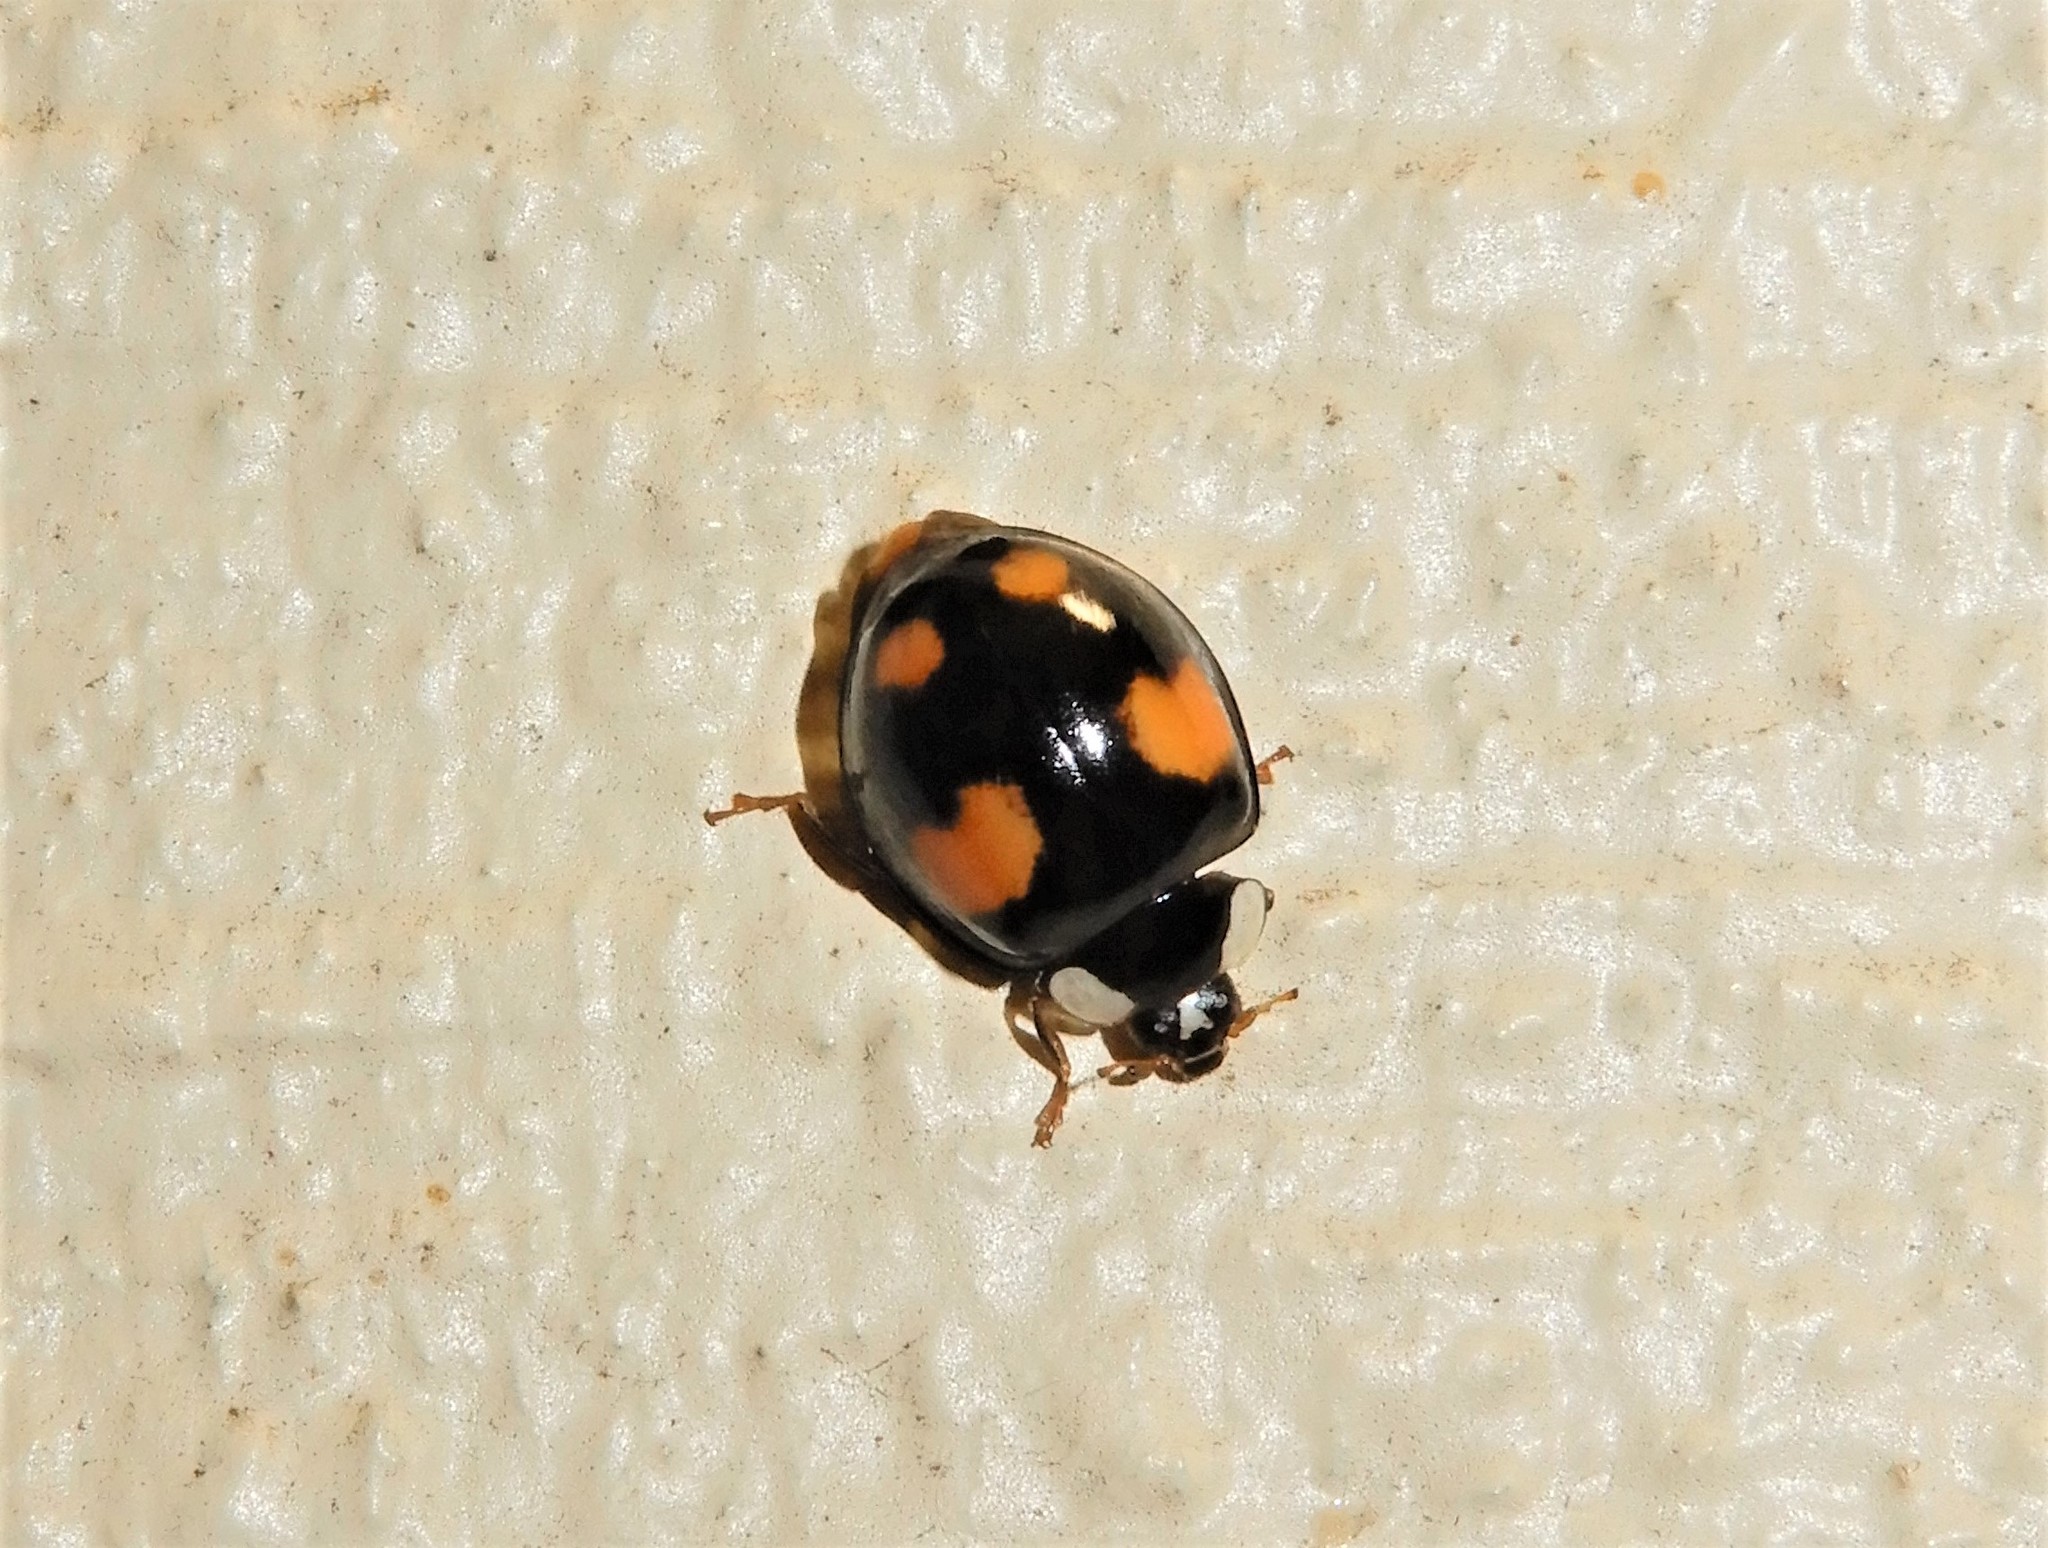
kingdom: Animalia
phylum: Arthropoda
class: Insecta
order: Coleoptera
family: Coccinellidae
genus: Harmonia
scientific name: Harmonia axyridis
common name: Harlequin ladybird
